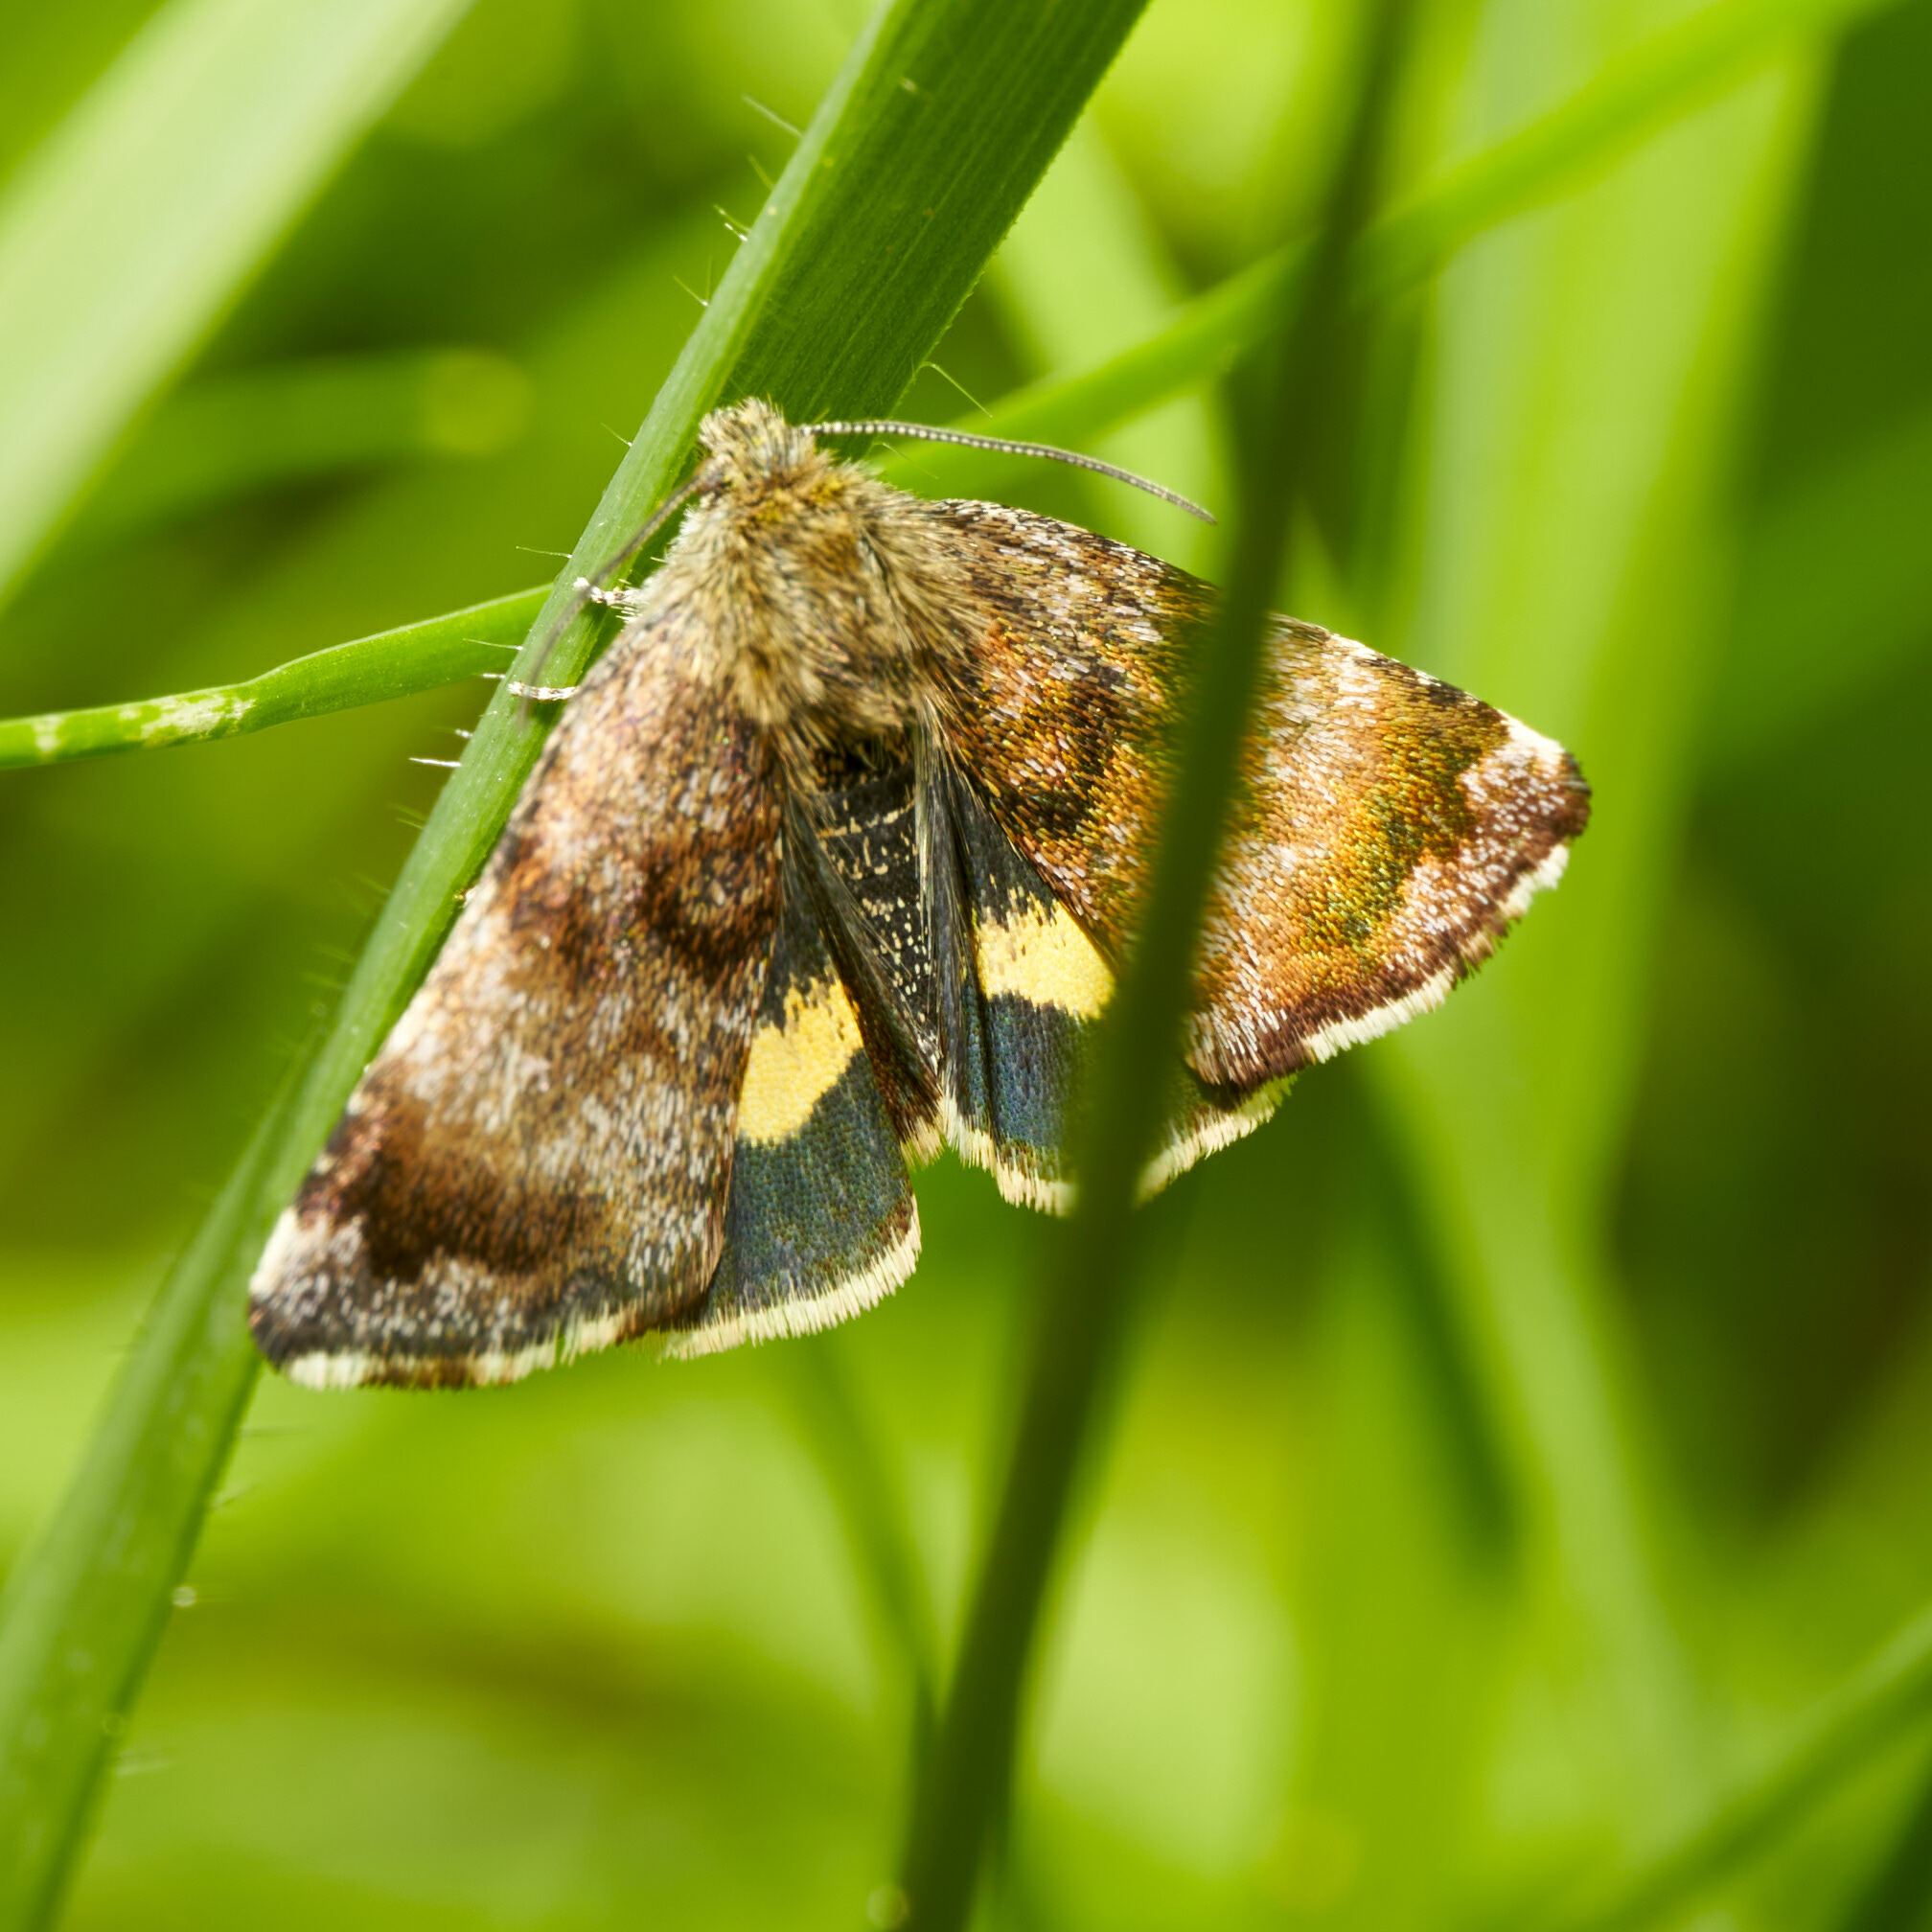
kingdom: Animalia
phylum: Arthropoda
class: Insecta
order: Lepidoptera
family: Noctuidae
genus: Panemeria
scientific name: Panemeria tenebrata
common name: Small yellow underwing
